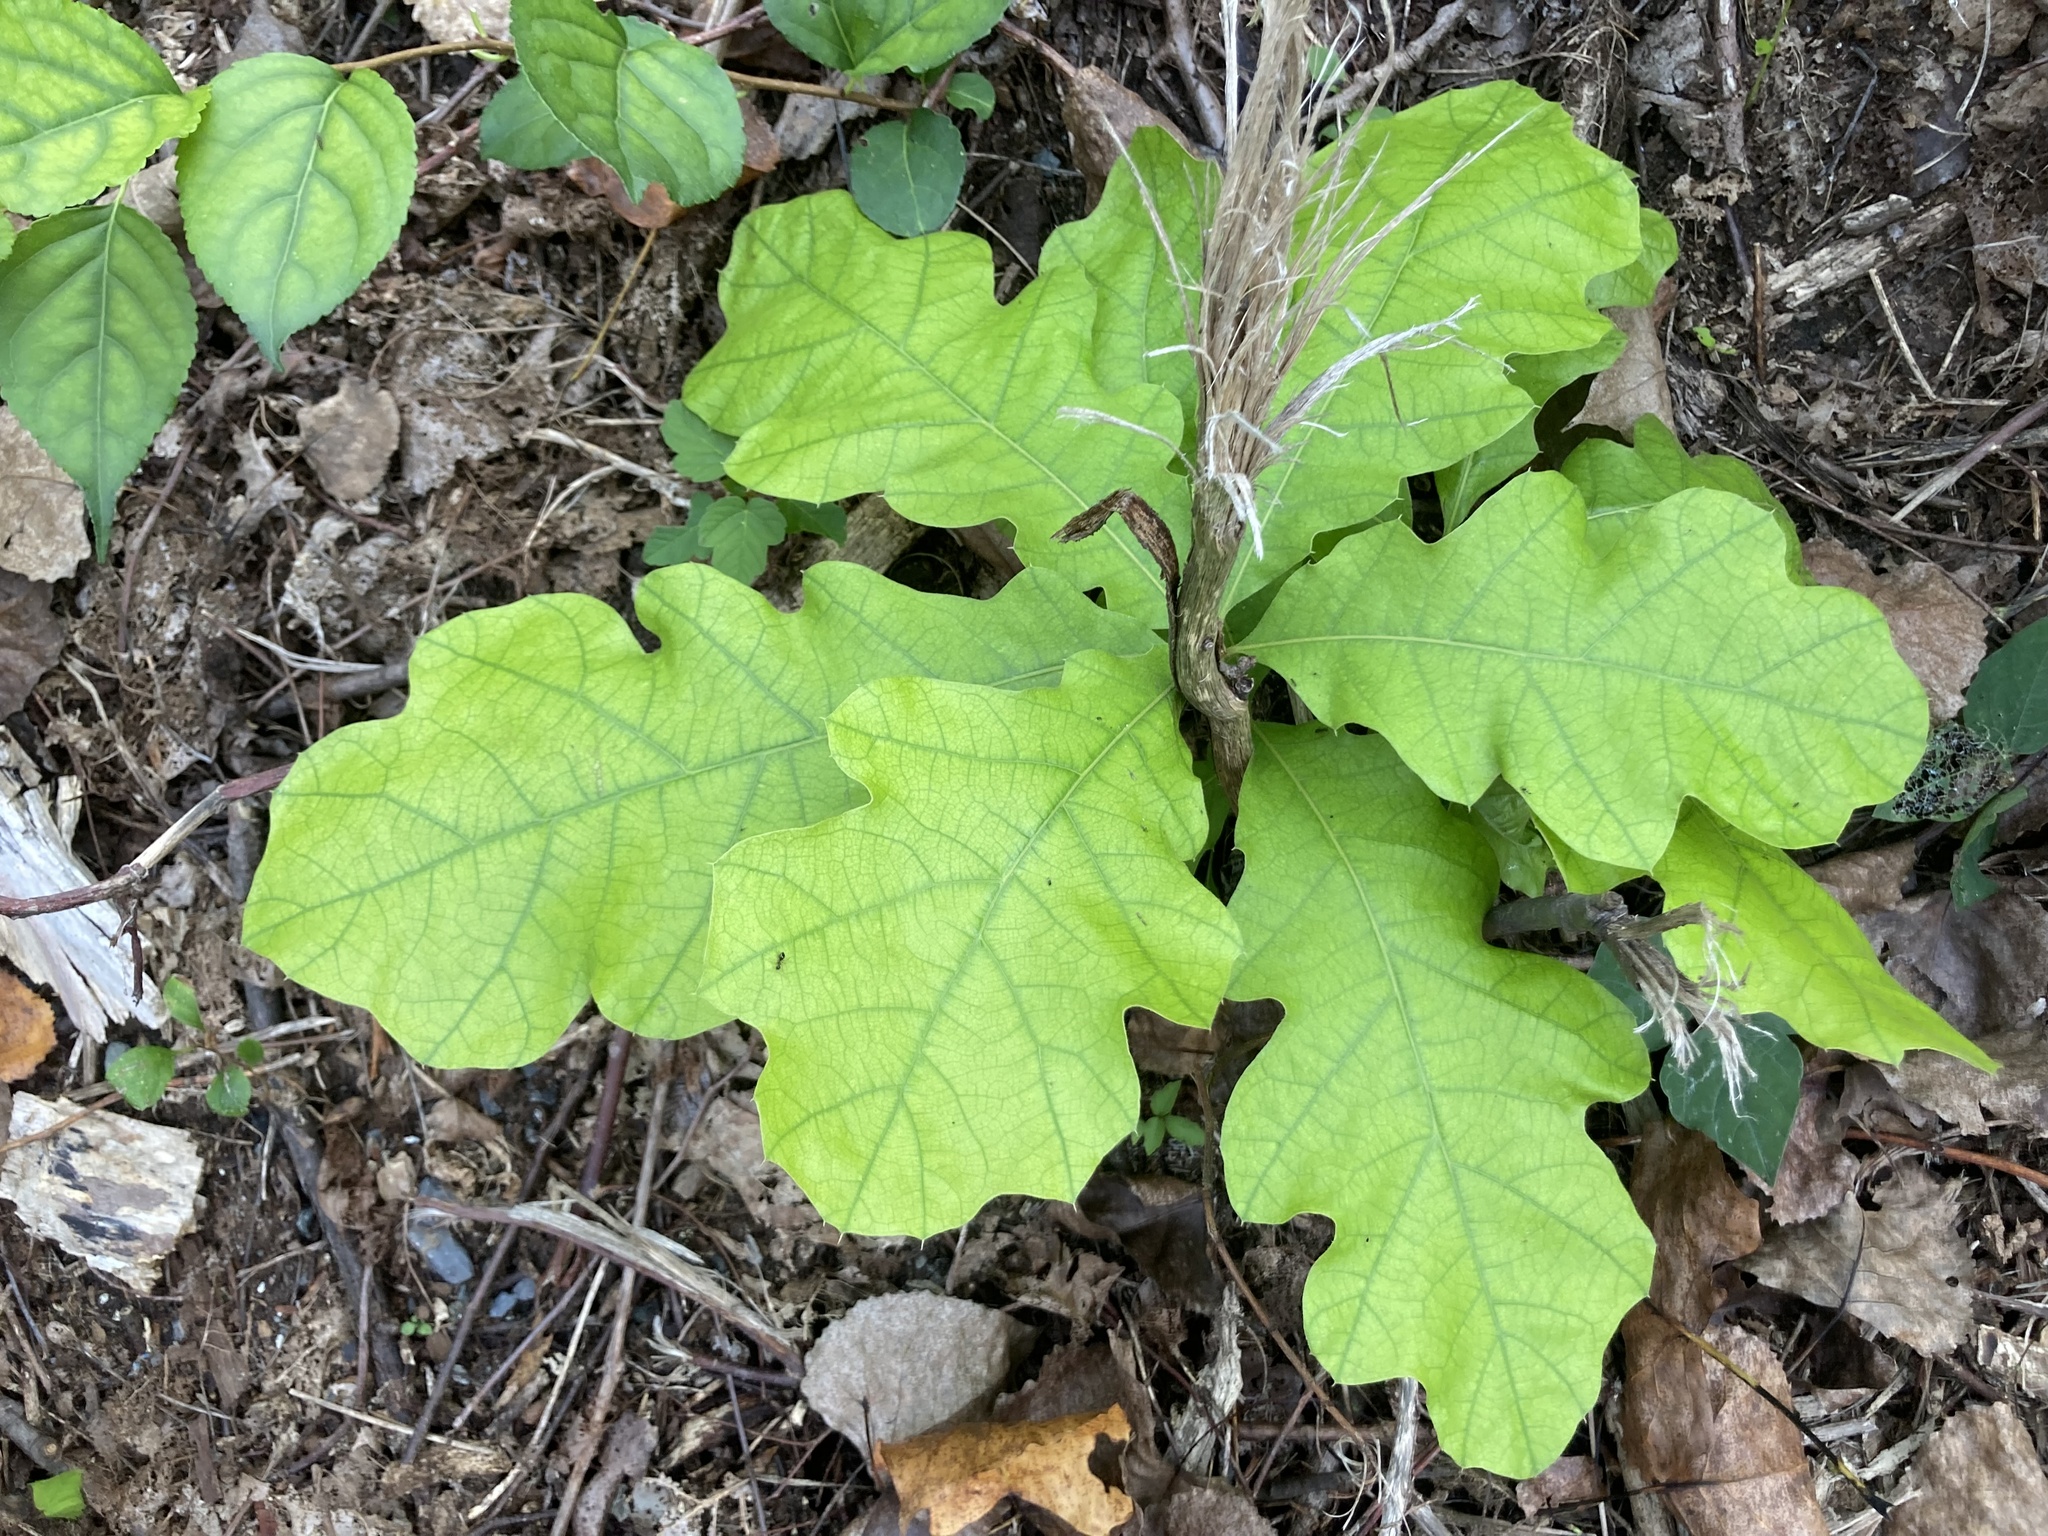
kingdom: Plantae
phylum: Tracheophyta
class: Magnoliopsida
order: Fagales
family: Fagaceae
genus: Quercus
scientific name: Quercus velutina
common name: Black oak
